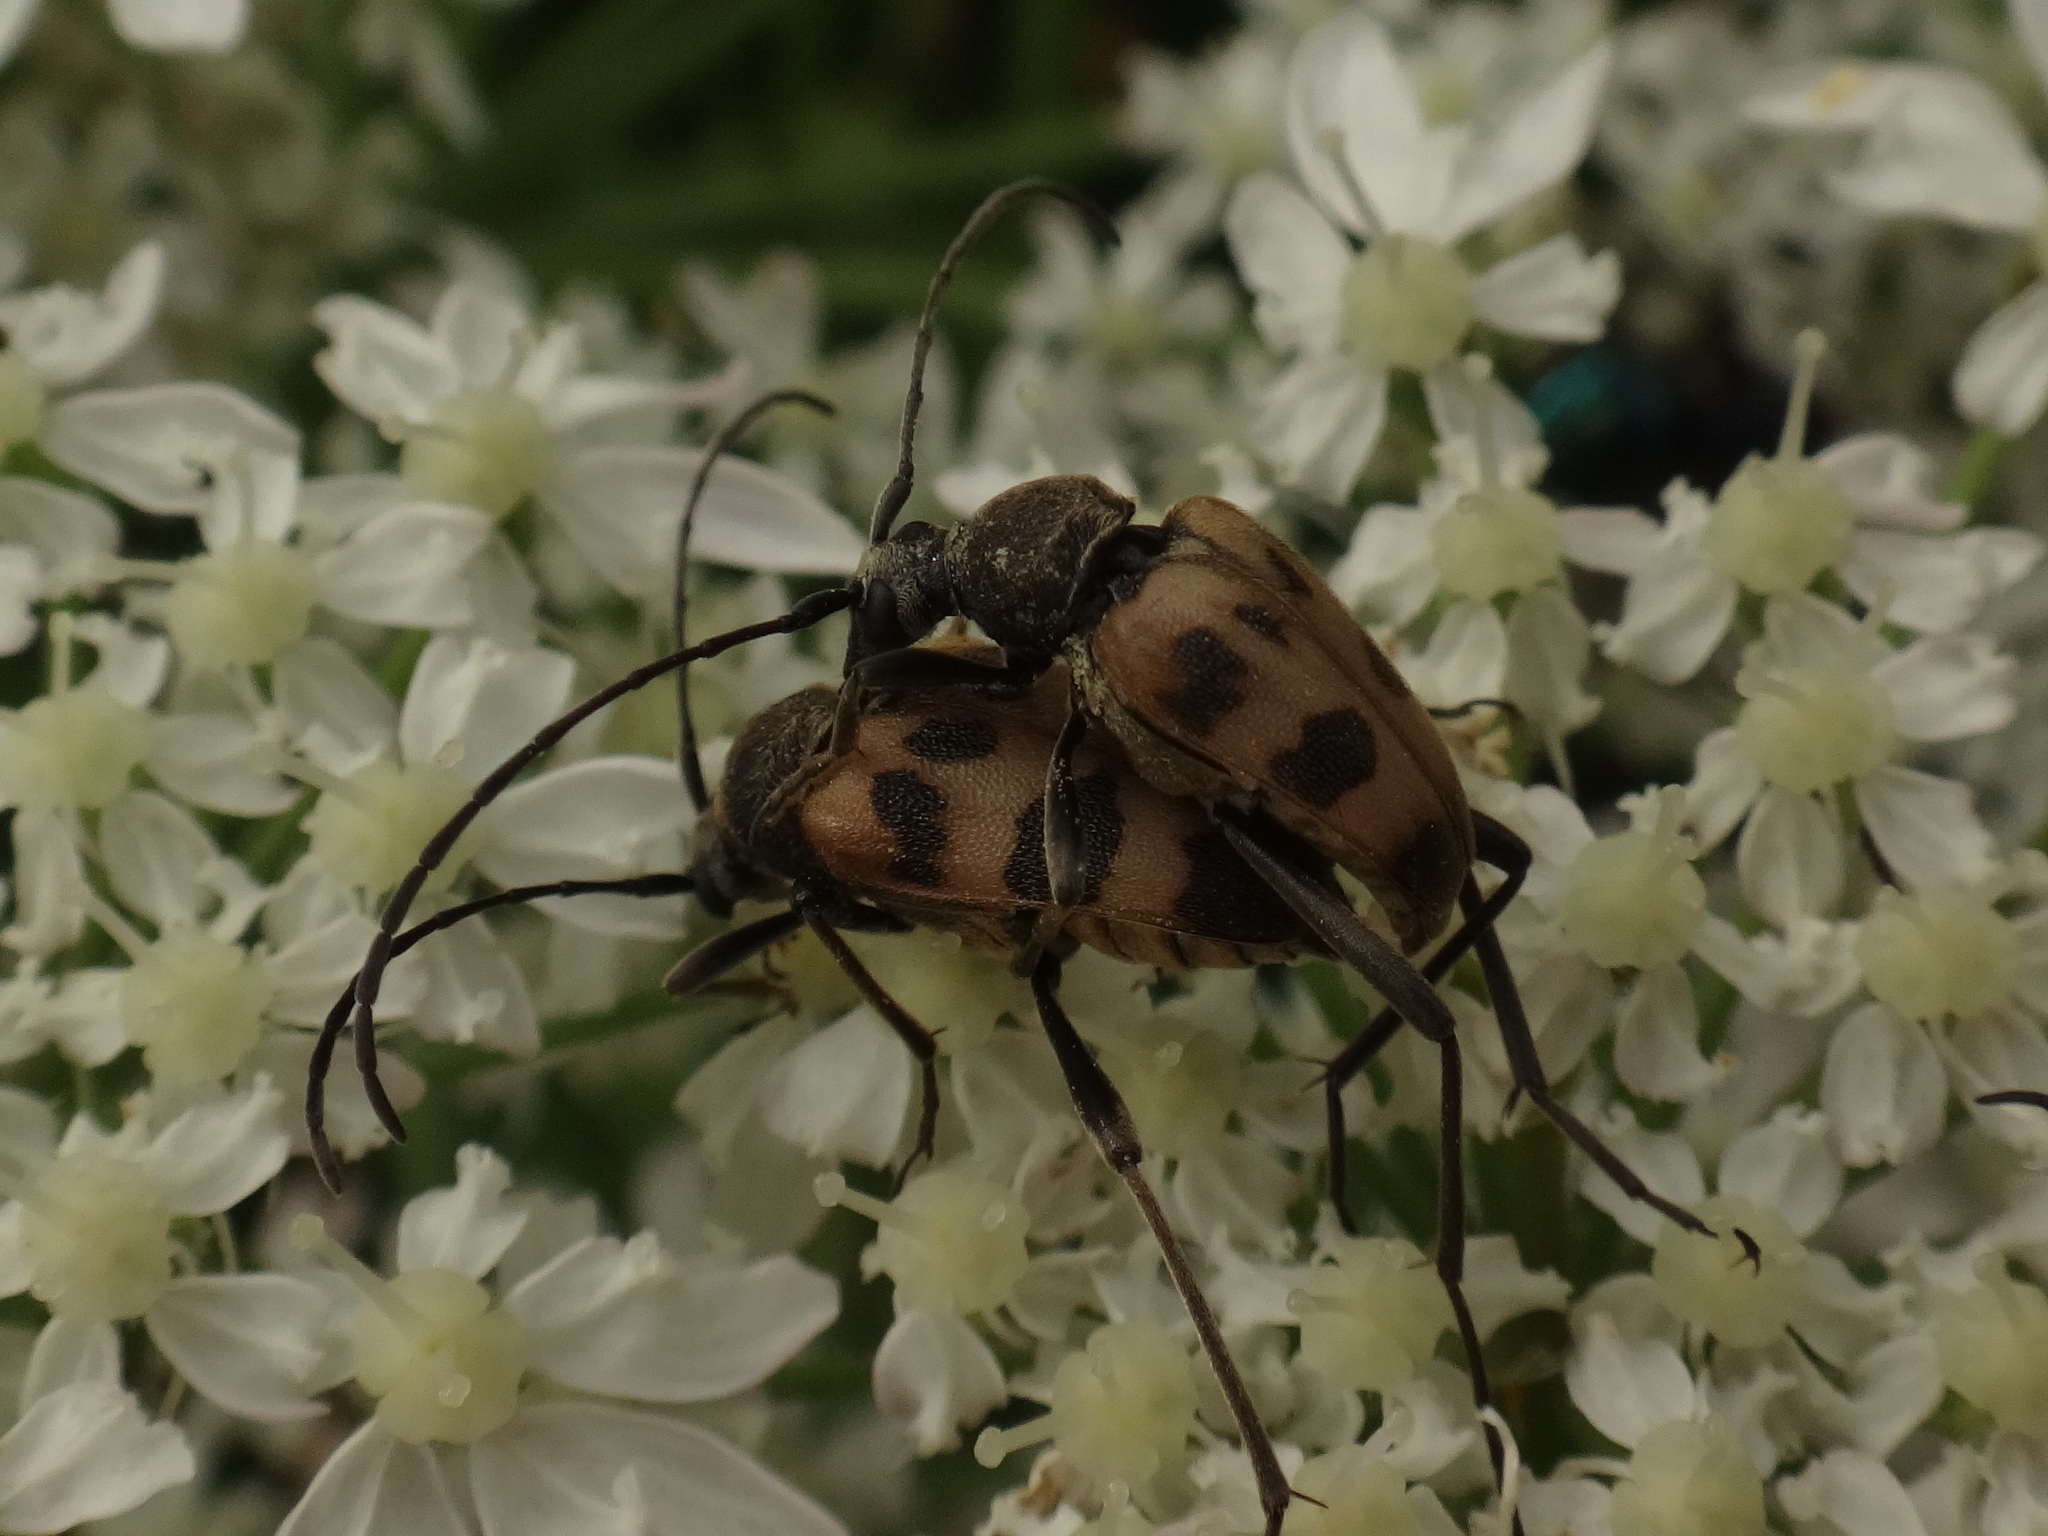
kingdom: Animalia
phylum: Arthropoda
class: Insecta
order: Coleoptera
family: Cerambycidae
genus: Pachytodes
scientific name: Pachytodes cerambyciformis
